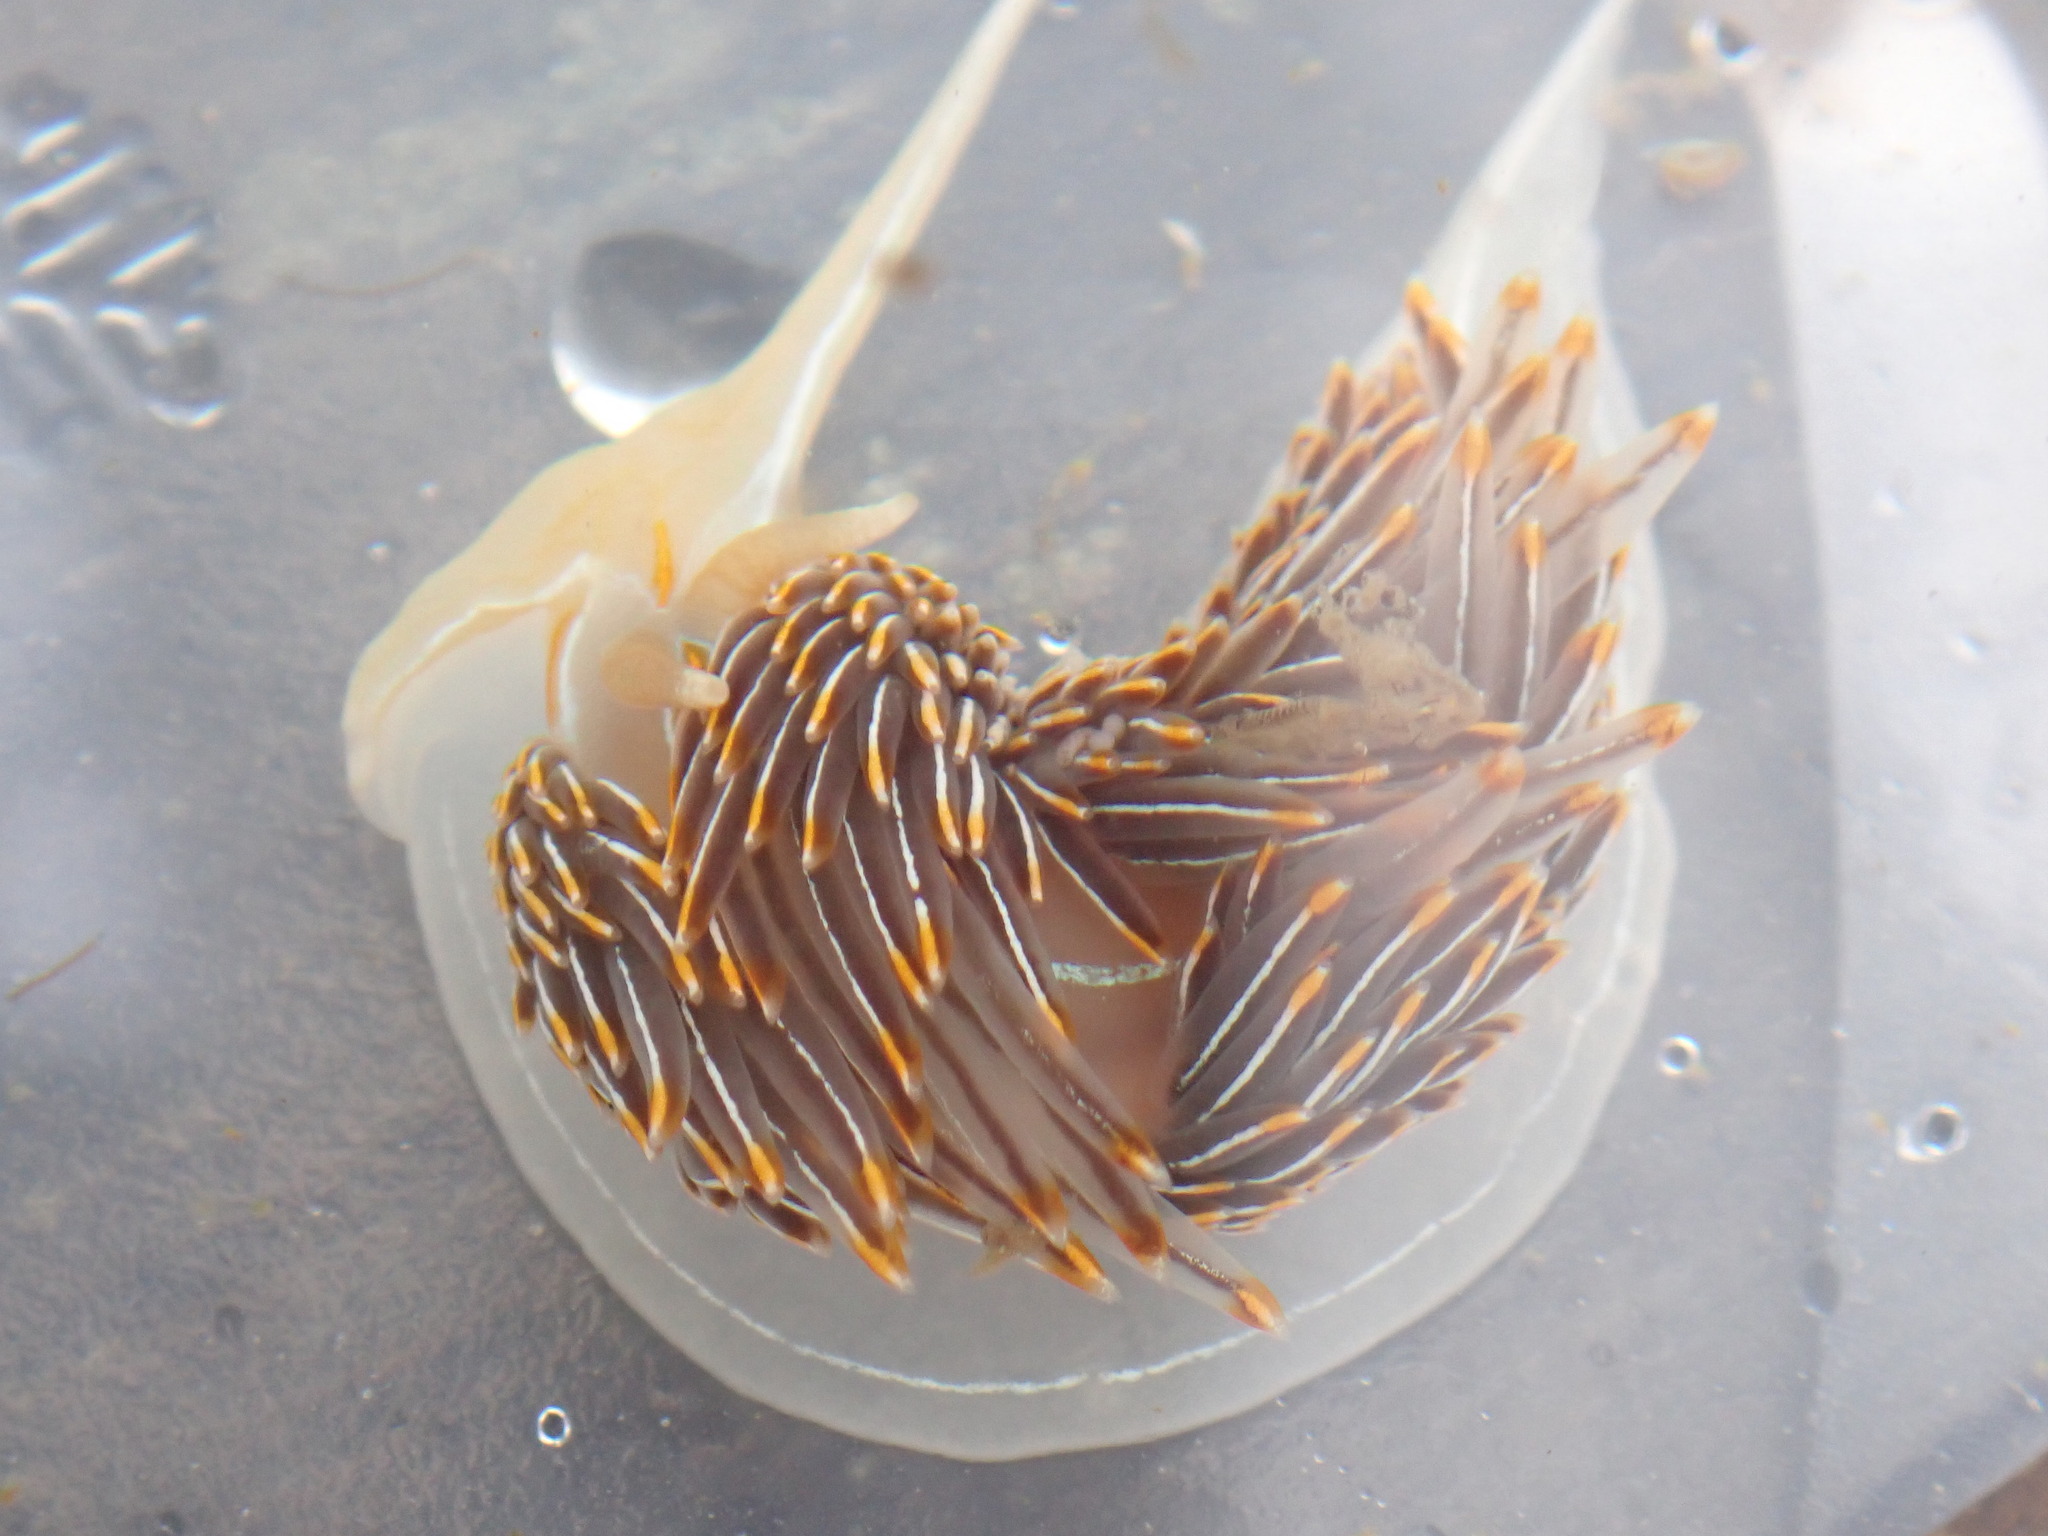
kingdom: Animalia
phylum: Mollusca
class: Gastropoda
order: Nudibranchia
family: Myrrhinidae
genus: Hermissenda
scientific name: Hermissenda crassicornis
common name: Hermissenda
